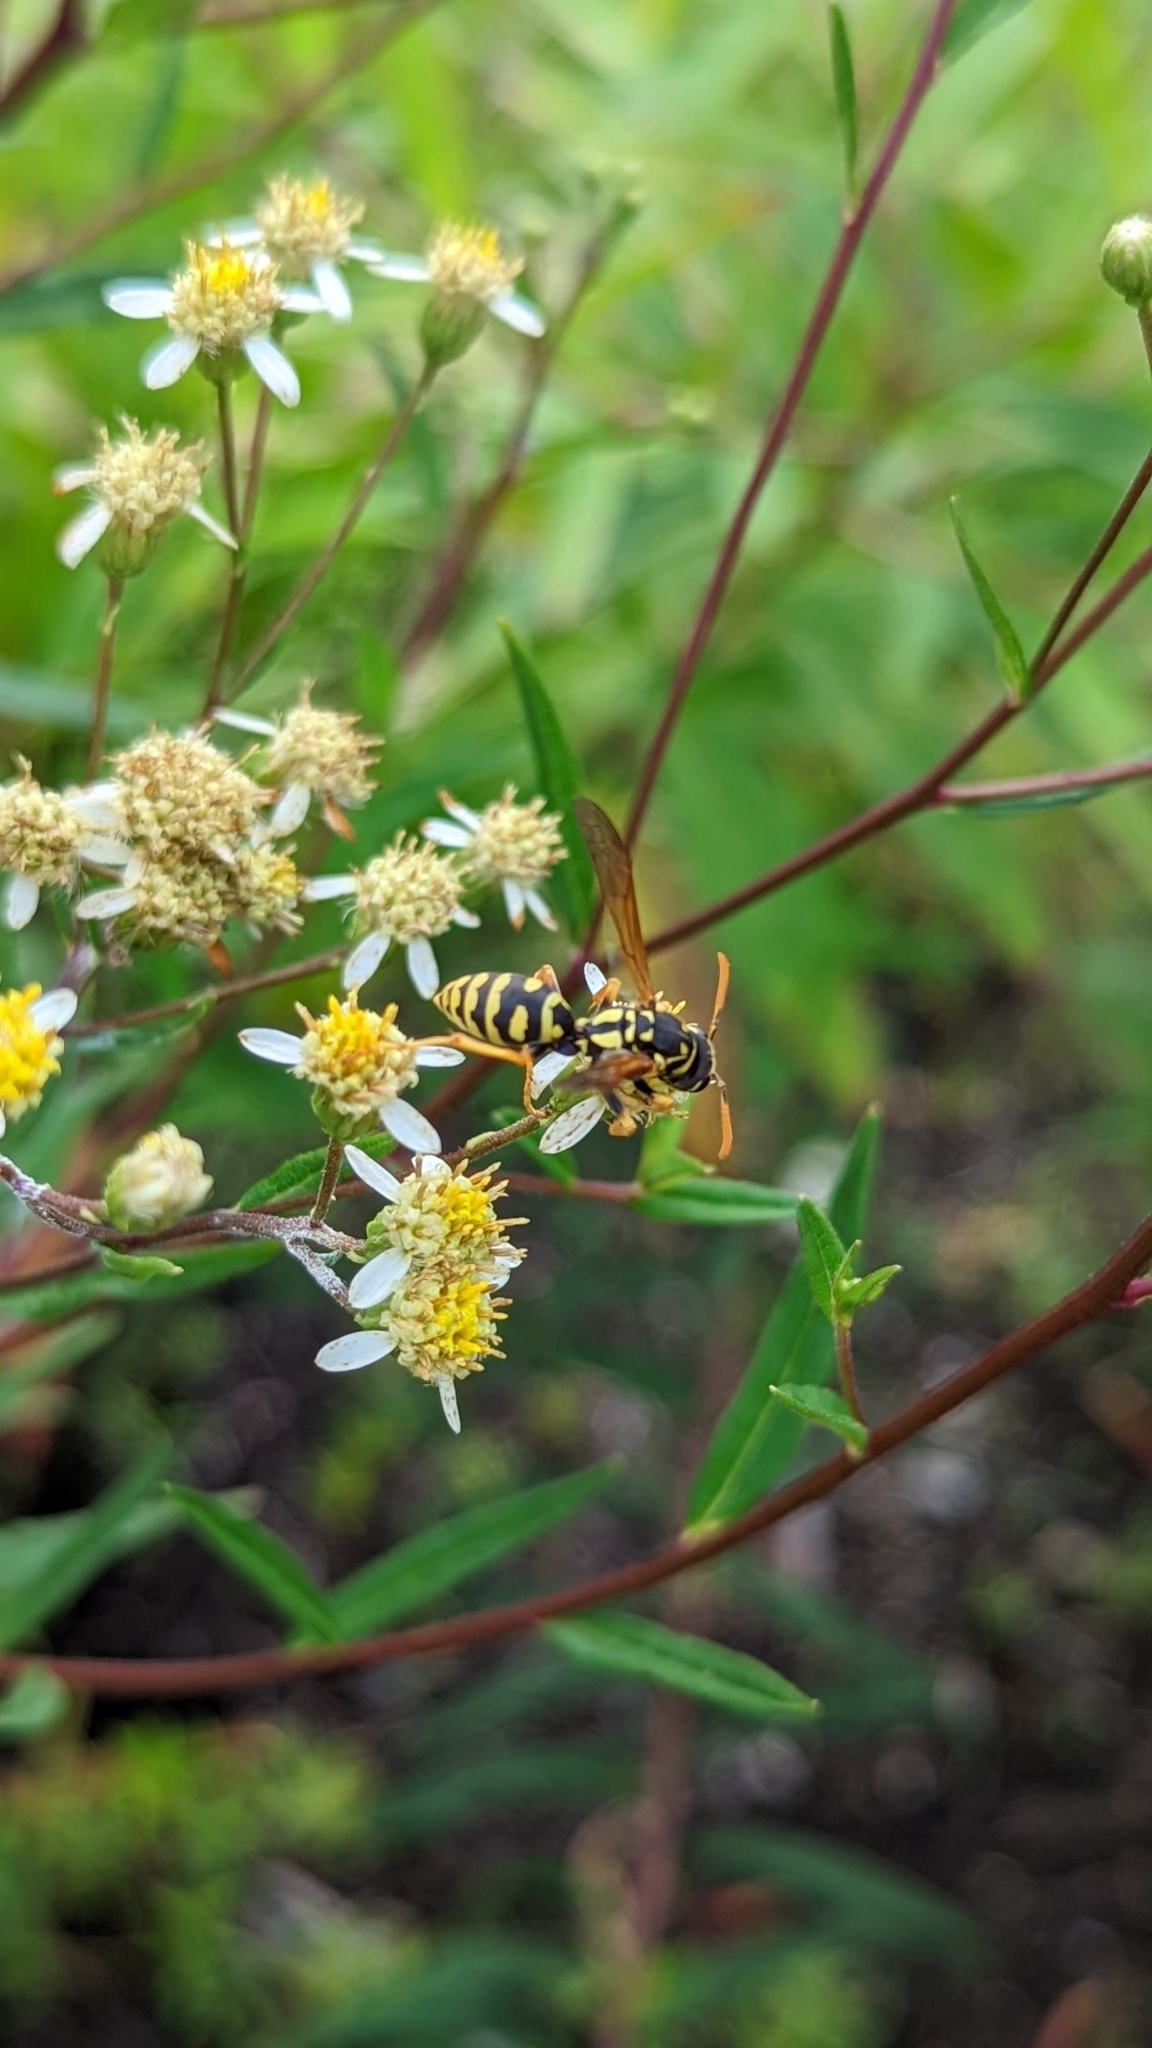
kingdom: Animalia
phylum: Arthropoda
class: Insecta
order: Hymenoptera
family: Eumenidae
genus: Polistes
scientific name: Polistes dominula
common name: Paper wasp
